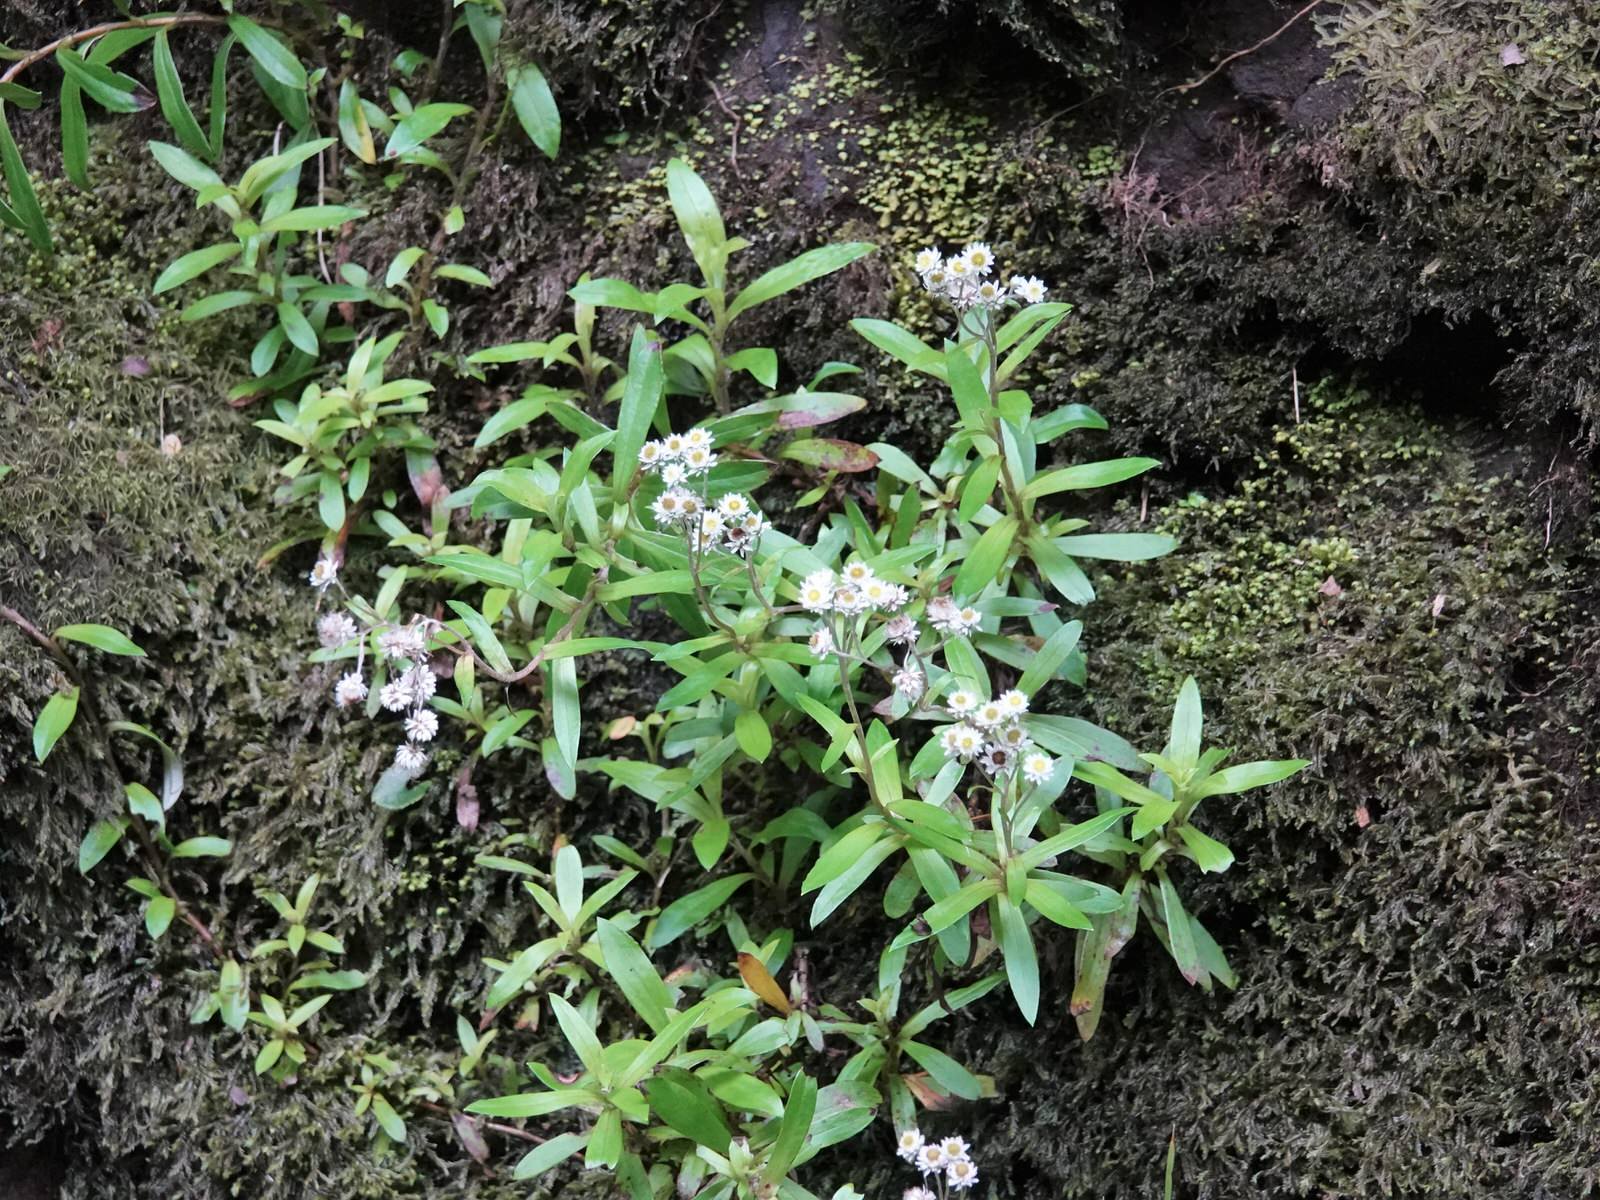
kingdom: Plantae
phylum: Tracheophyta
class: Magnoliopsida
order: Asterales
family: Asteraceae
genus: Anaphalioides
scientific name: Anaphalioides trinervis
